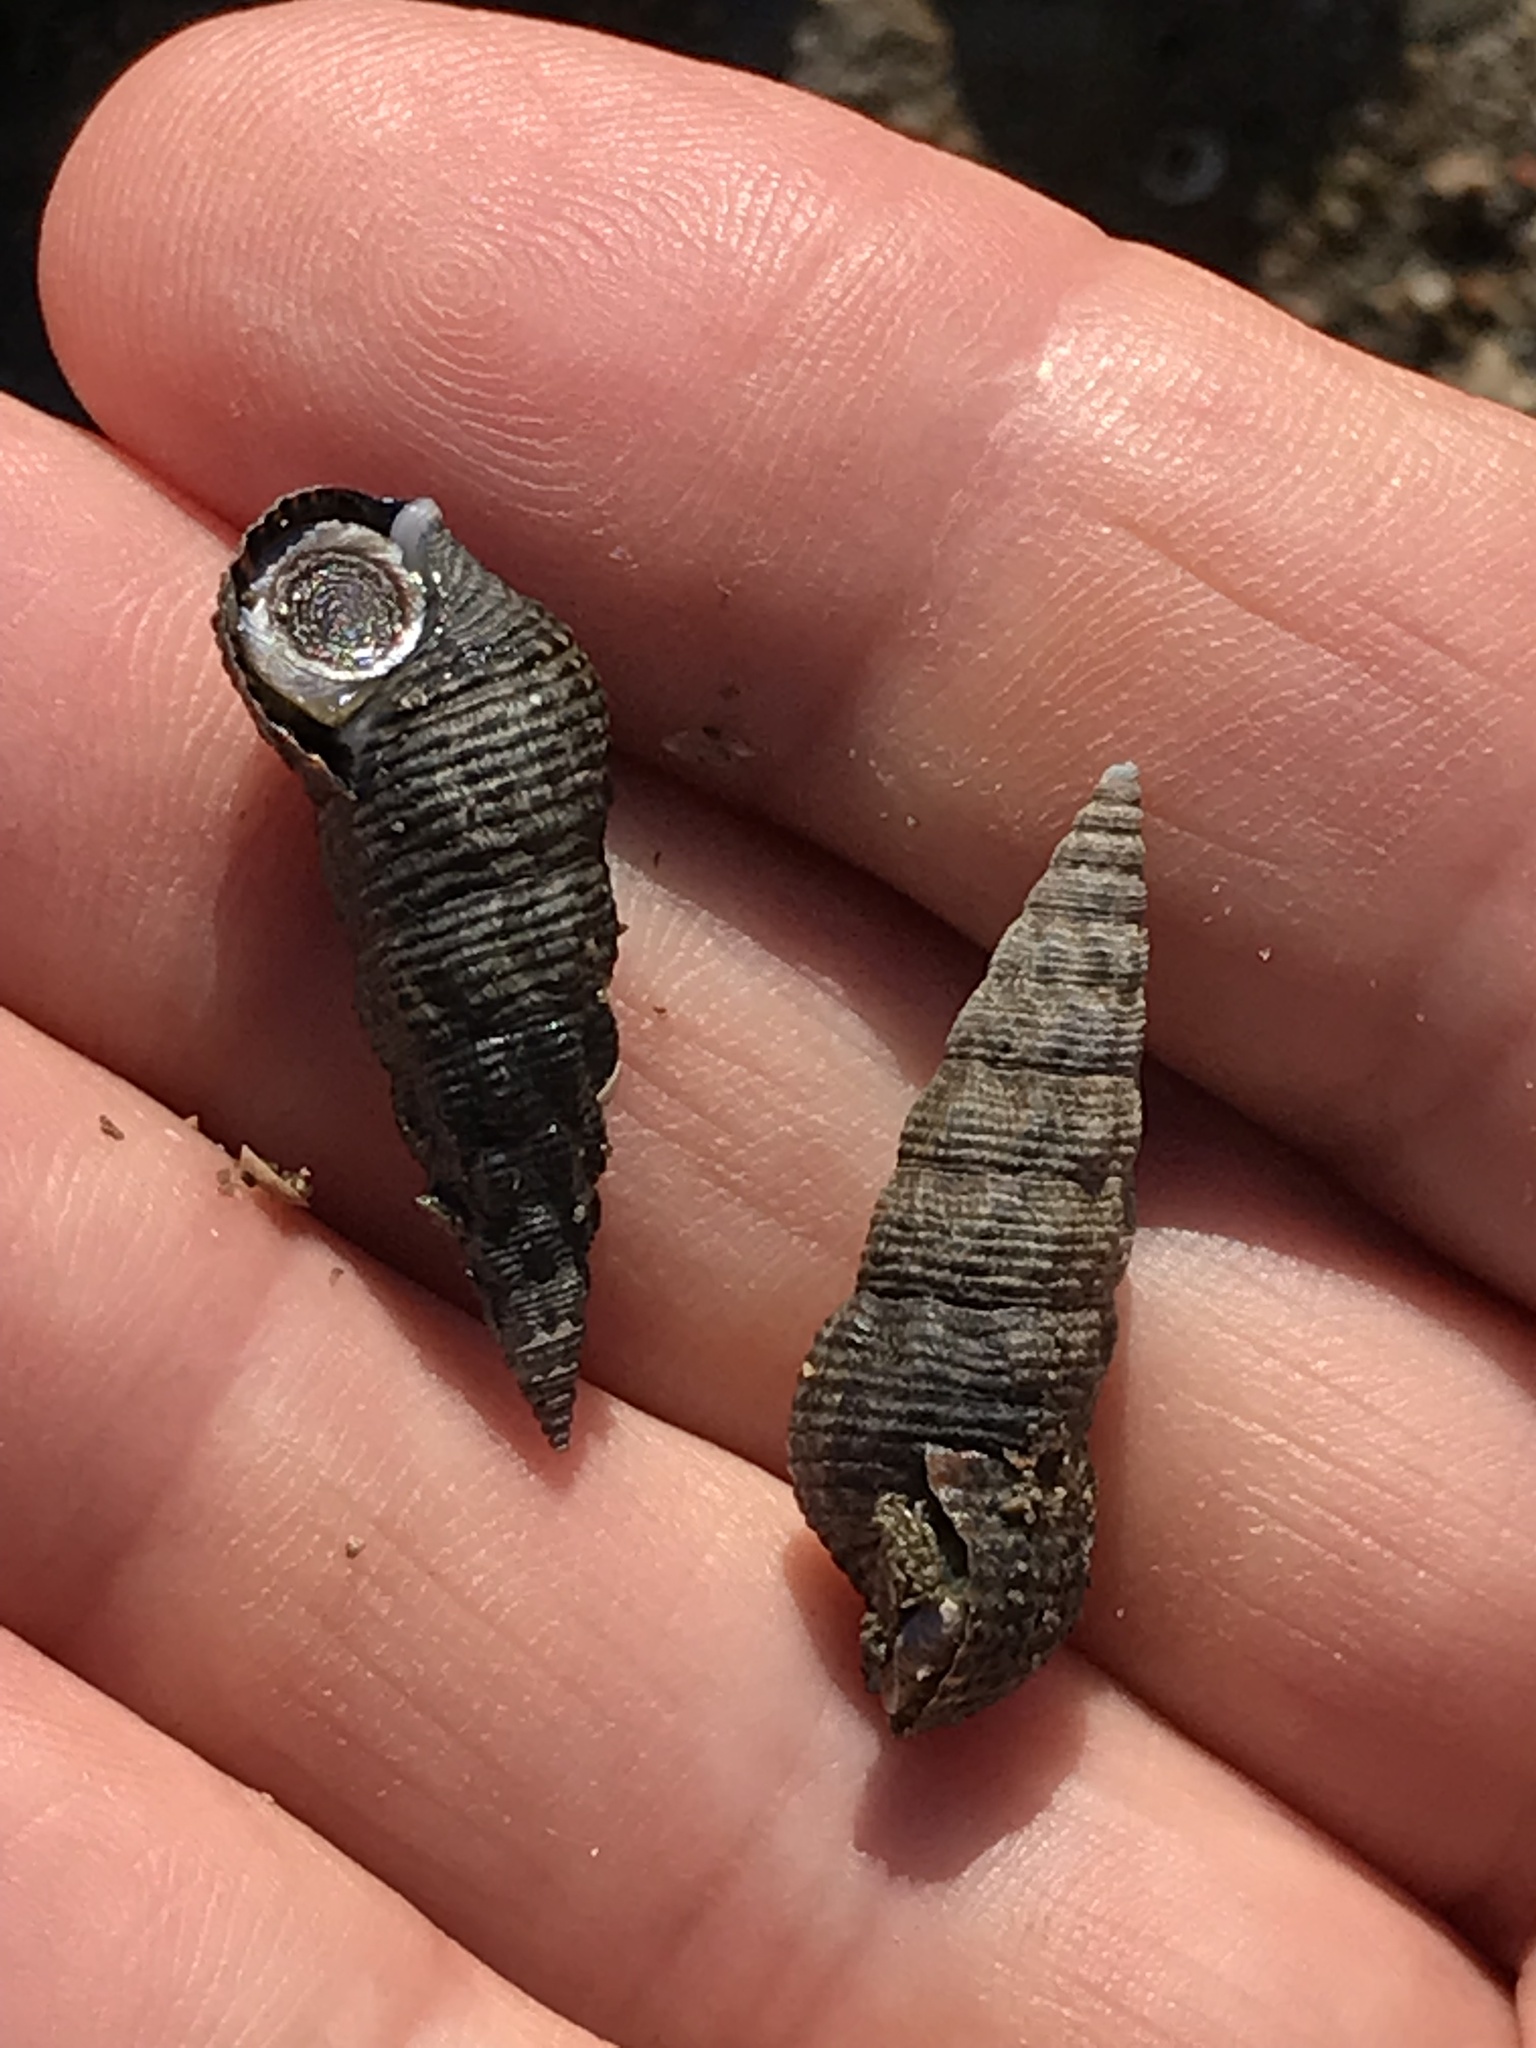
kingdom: Animalia
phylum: Mollusca
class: Gastropoda
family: Batillariidae
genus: Batillaria
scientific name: Batillaria attramentaria
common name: Japanese false cerith
